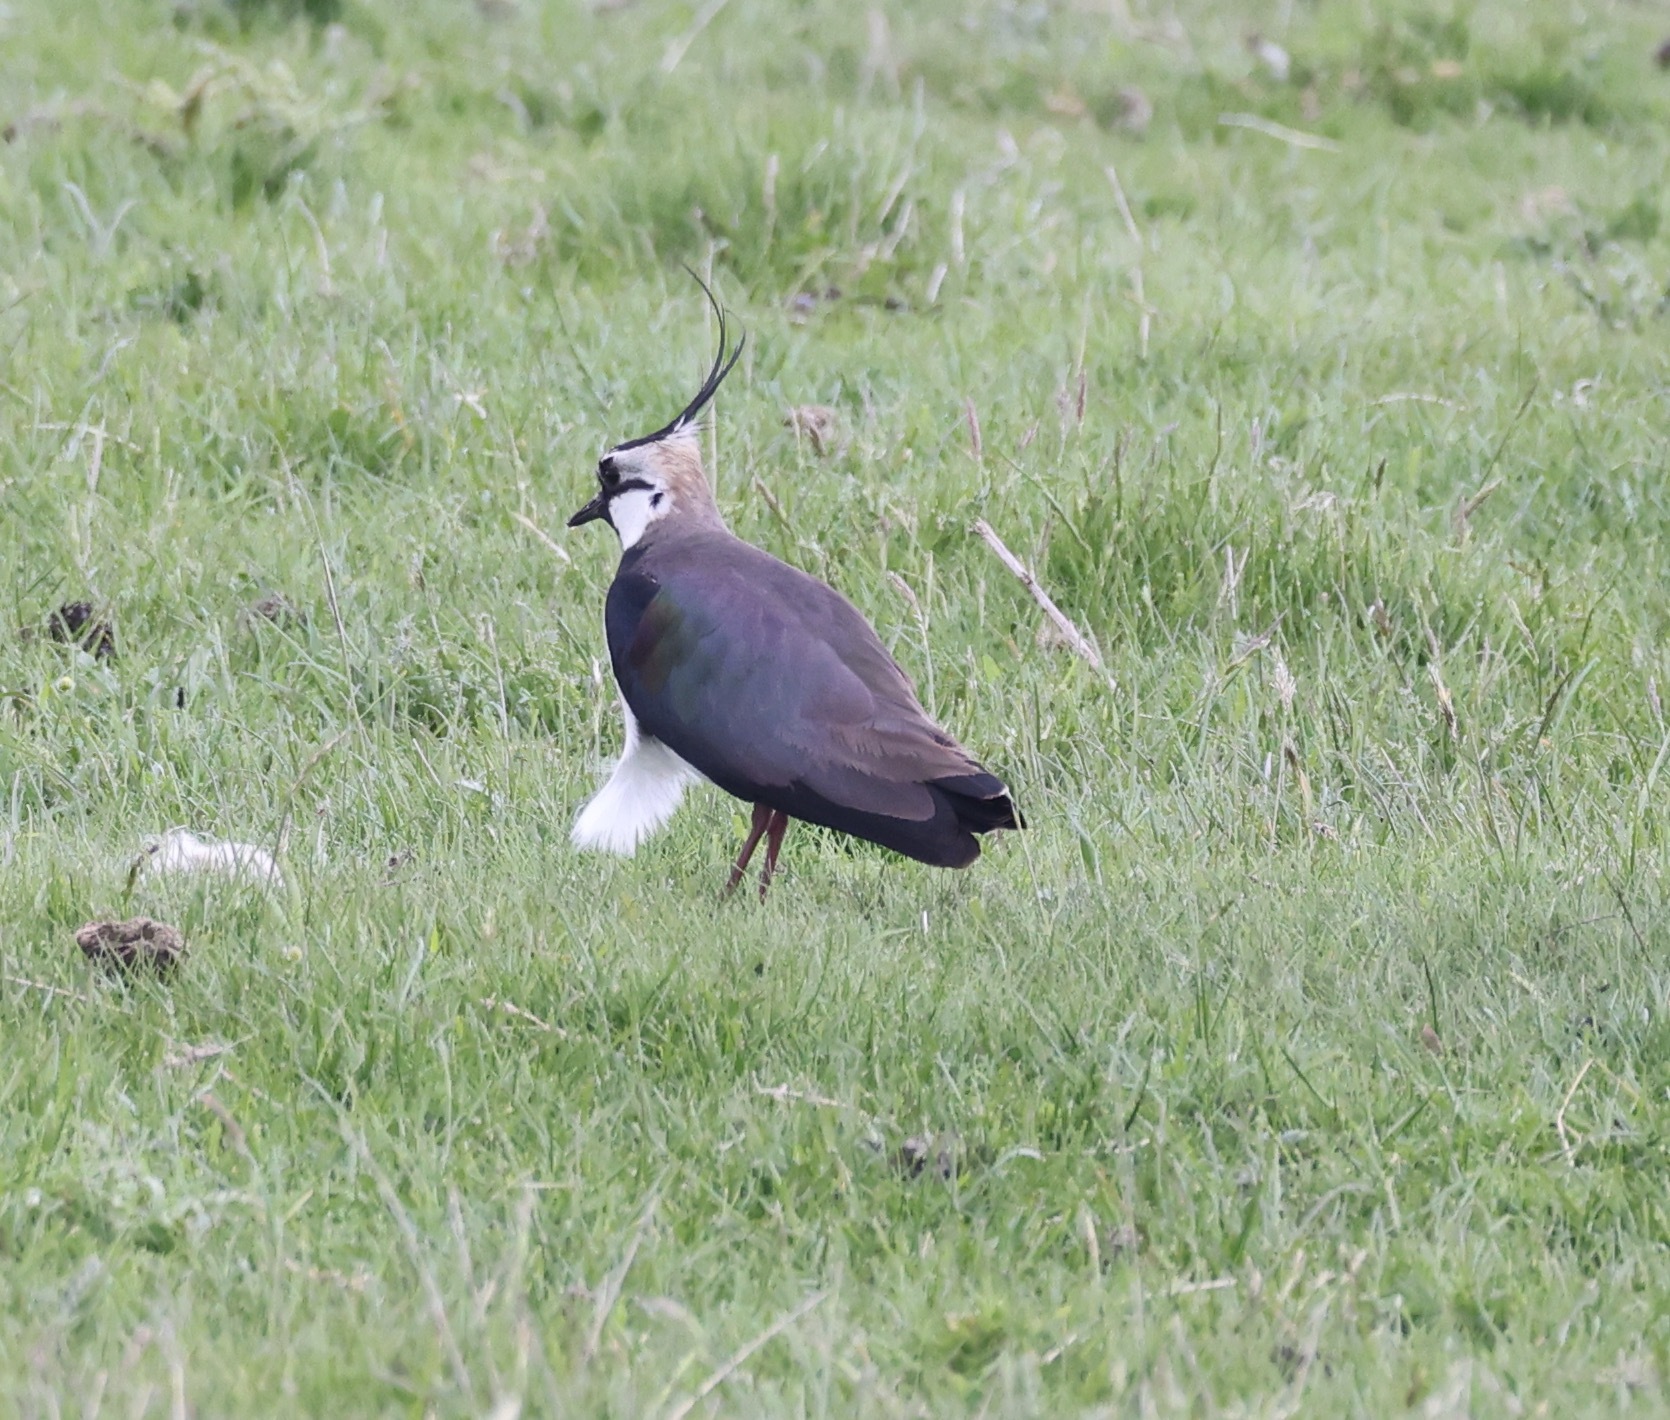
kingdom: Animalia
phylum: Chordata
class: Aves
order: Charadriiformes
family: Charadriidae
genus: Vanellus
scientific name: Vanellus vanellus
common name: Northern lapwing
